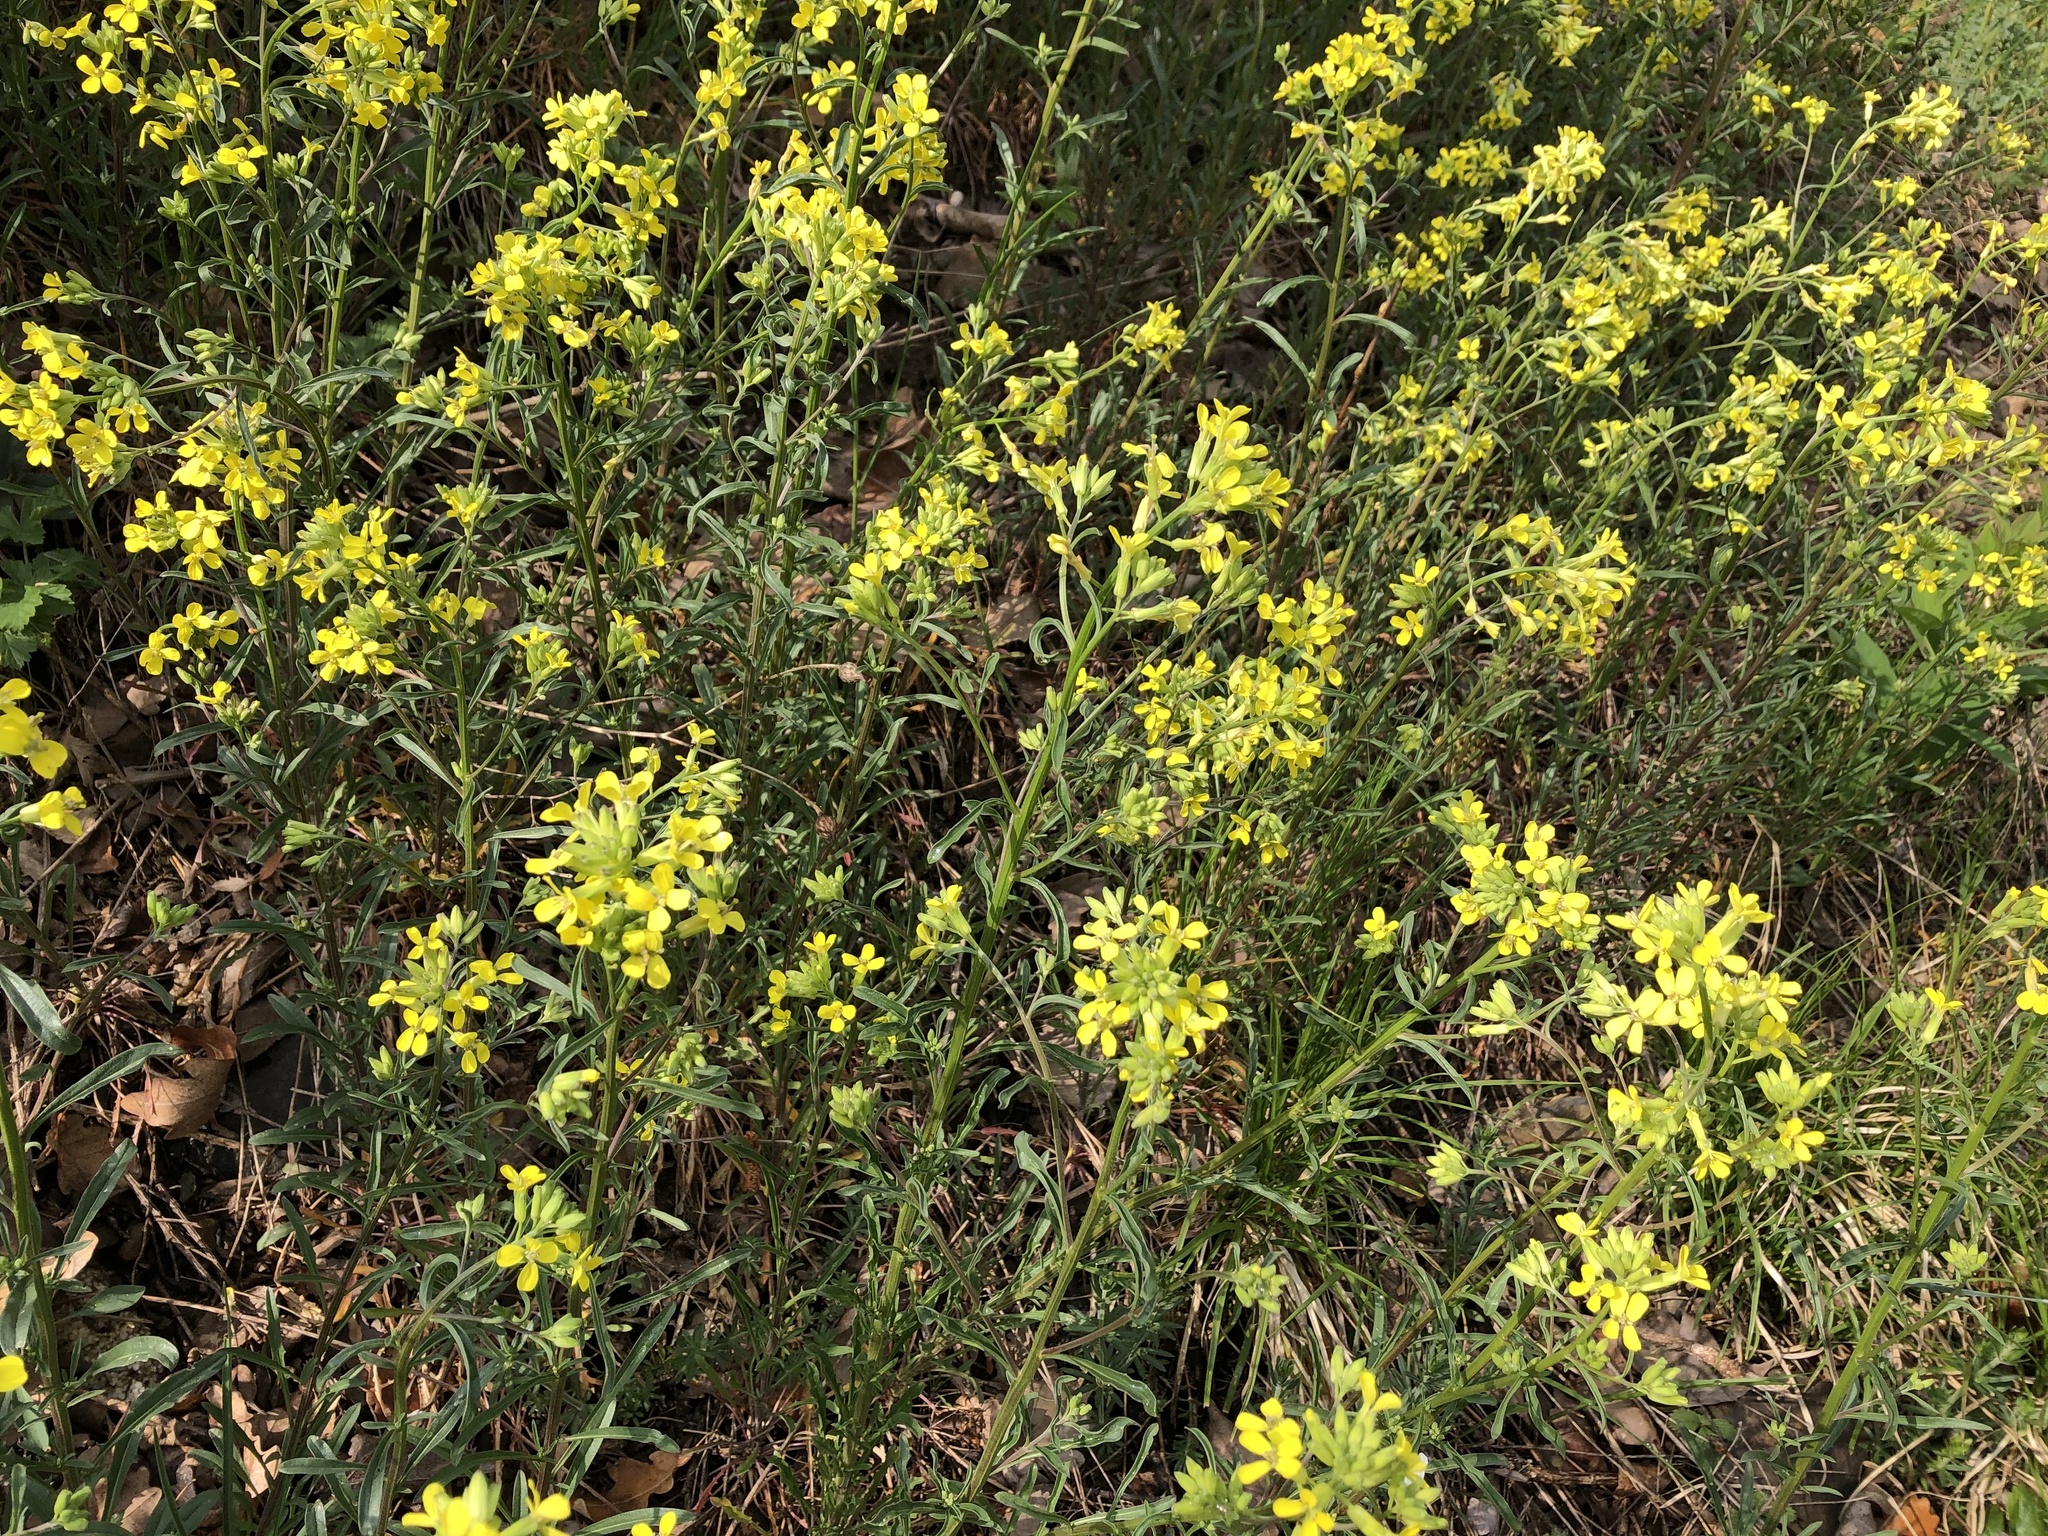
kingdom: Plantae
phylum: Tracheophyta
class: Magnoliopsida
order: Brassicales
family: Brassicaceae
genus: Erysimum
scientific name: Erysimum crepidifolium
